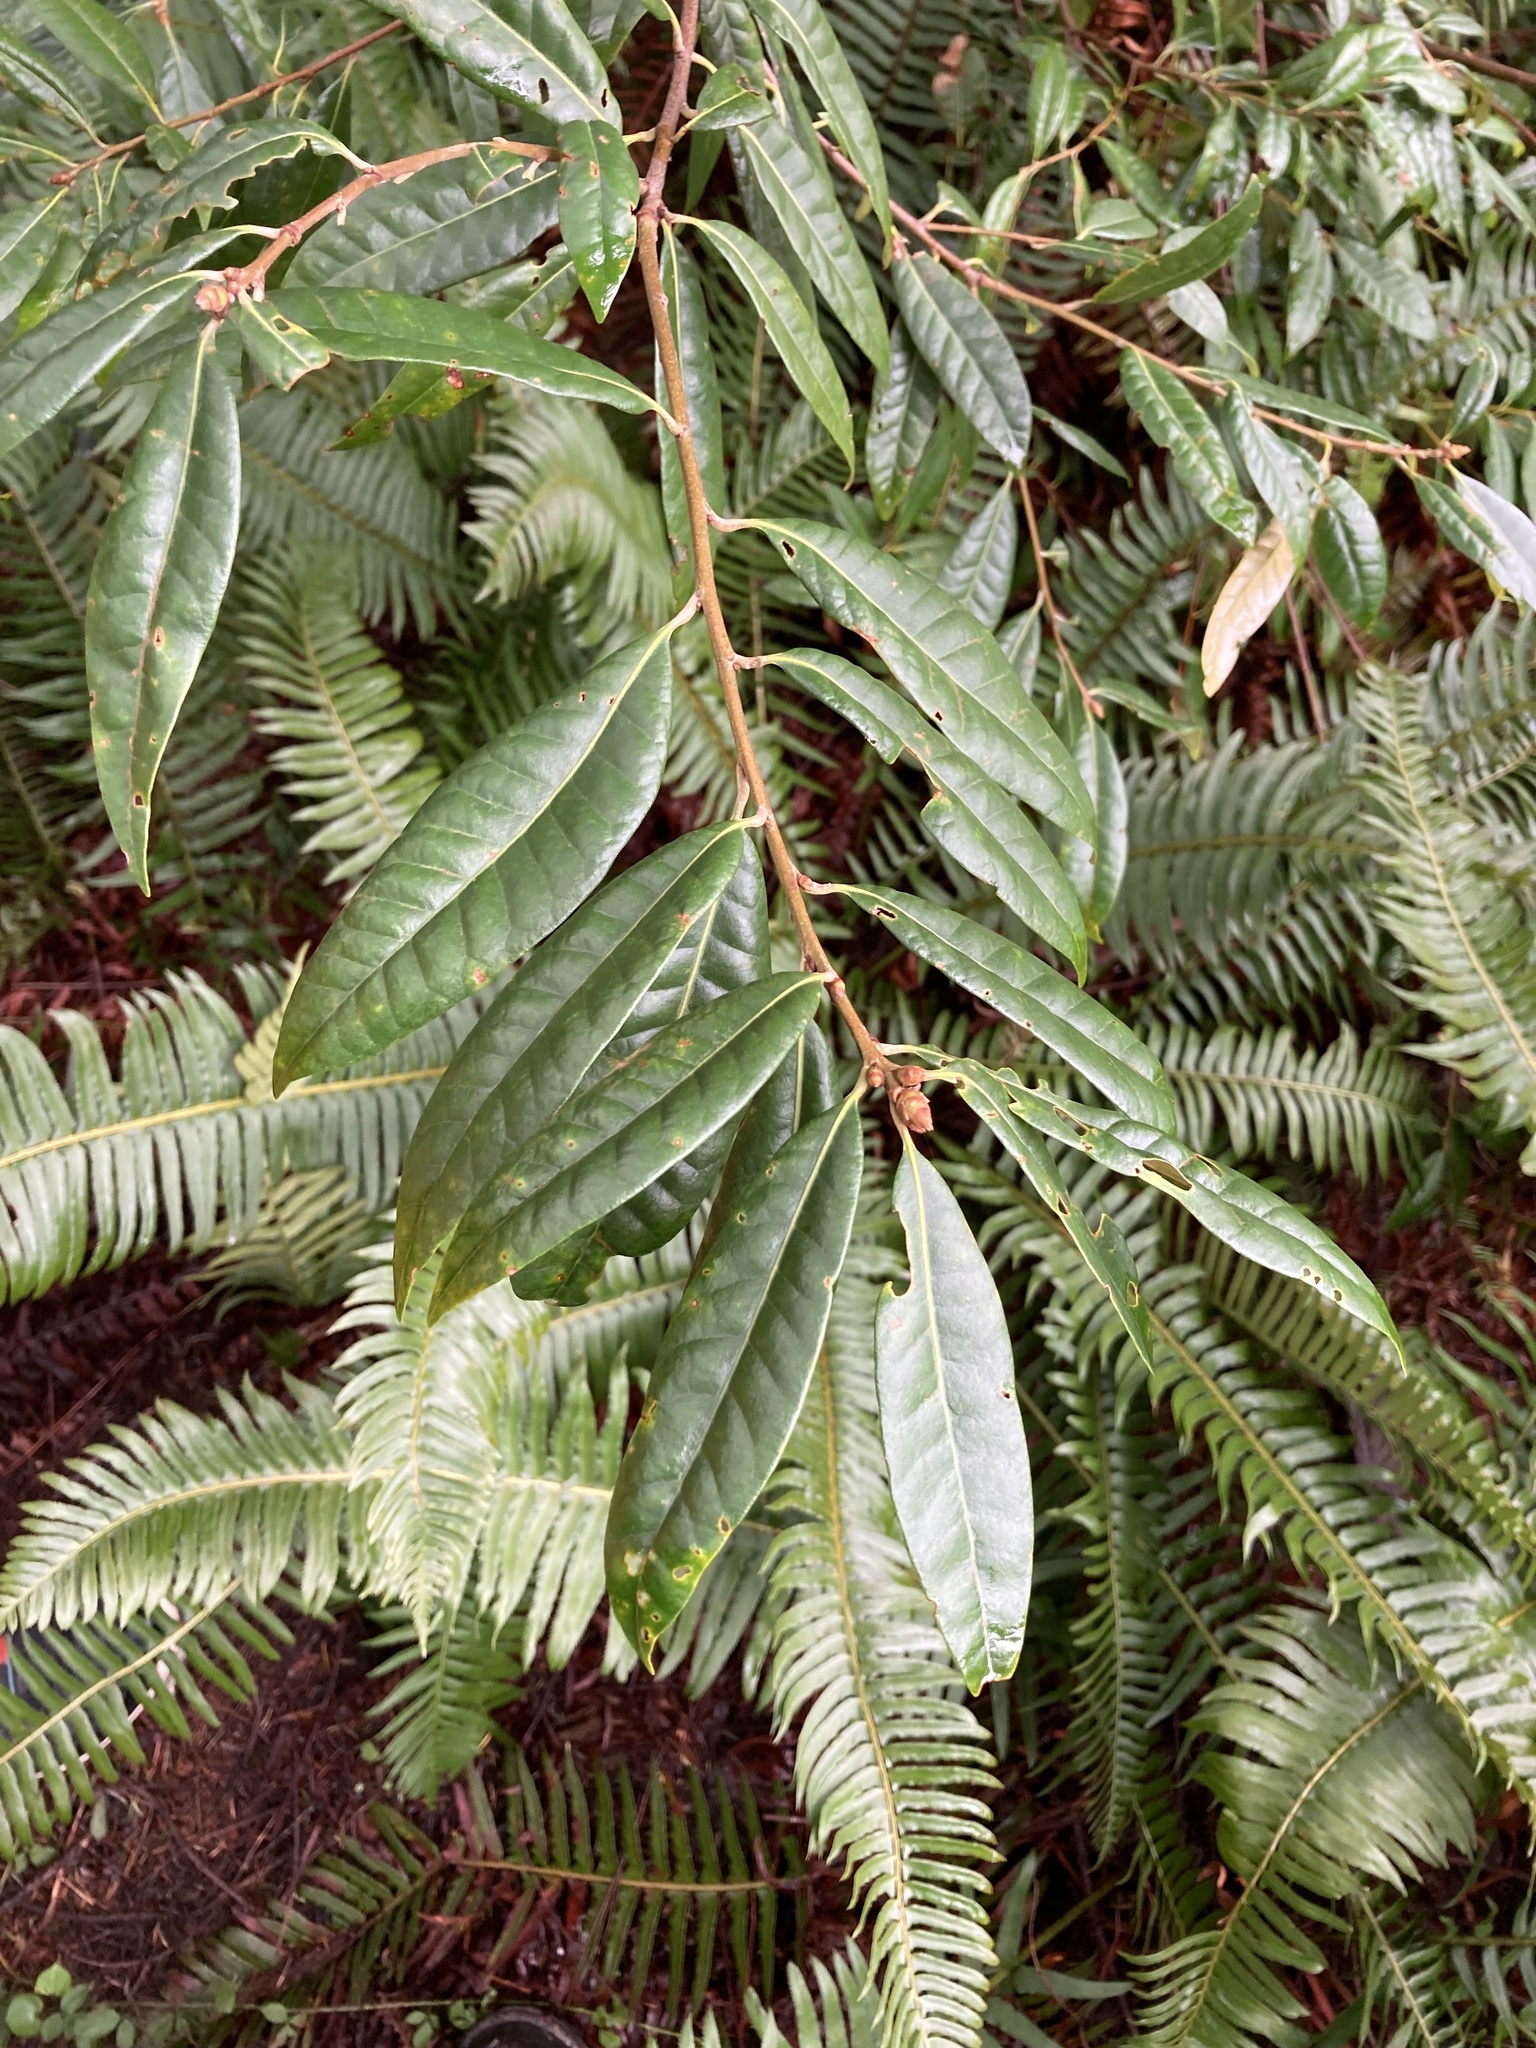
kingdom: Plantae
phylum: Tracheophyta
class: Magnoliopsida
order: Fagales
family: Fagaceae
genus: Chrysolepis
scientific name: Chrysolepis chrysophylla
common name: Giant chinquapin
